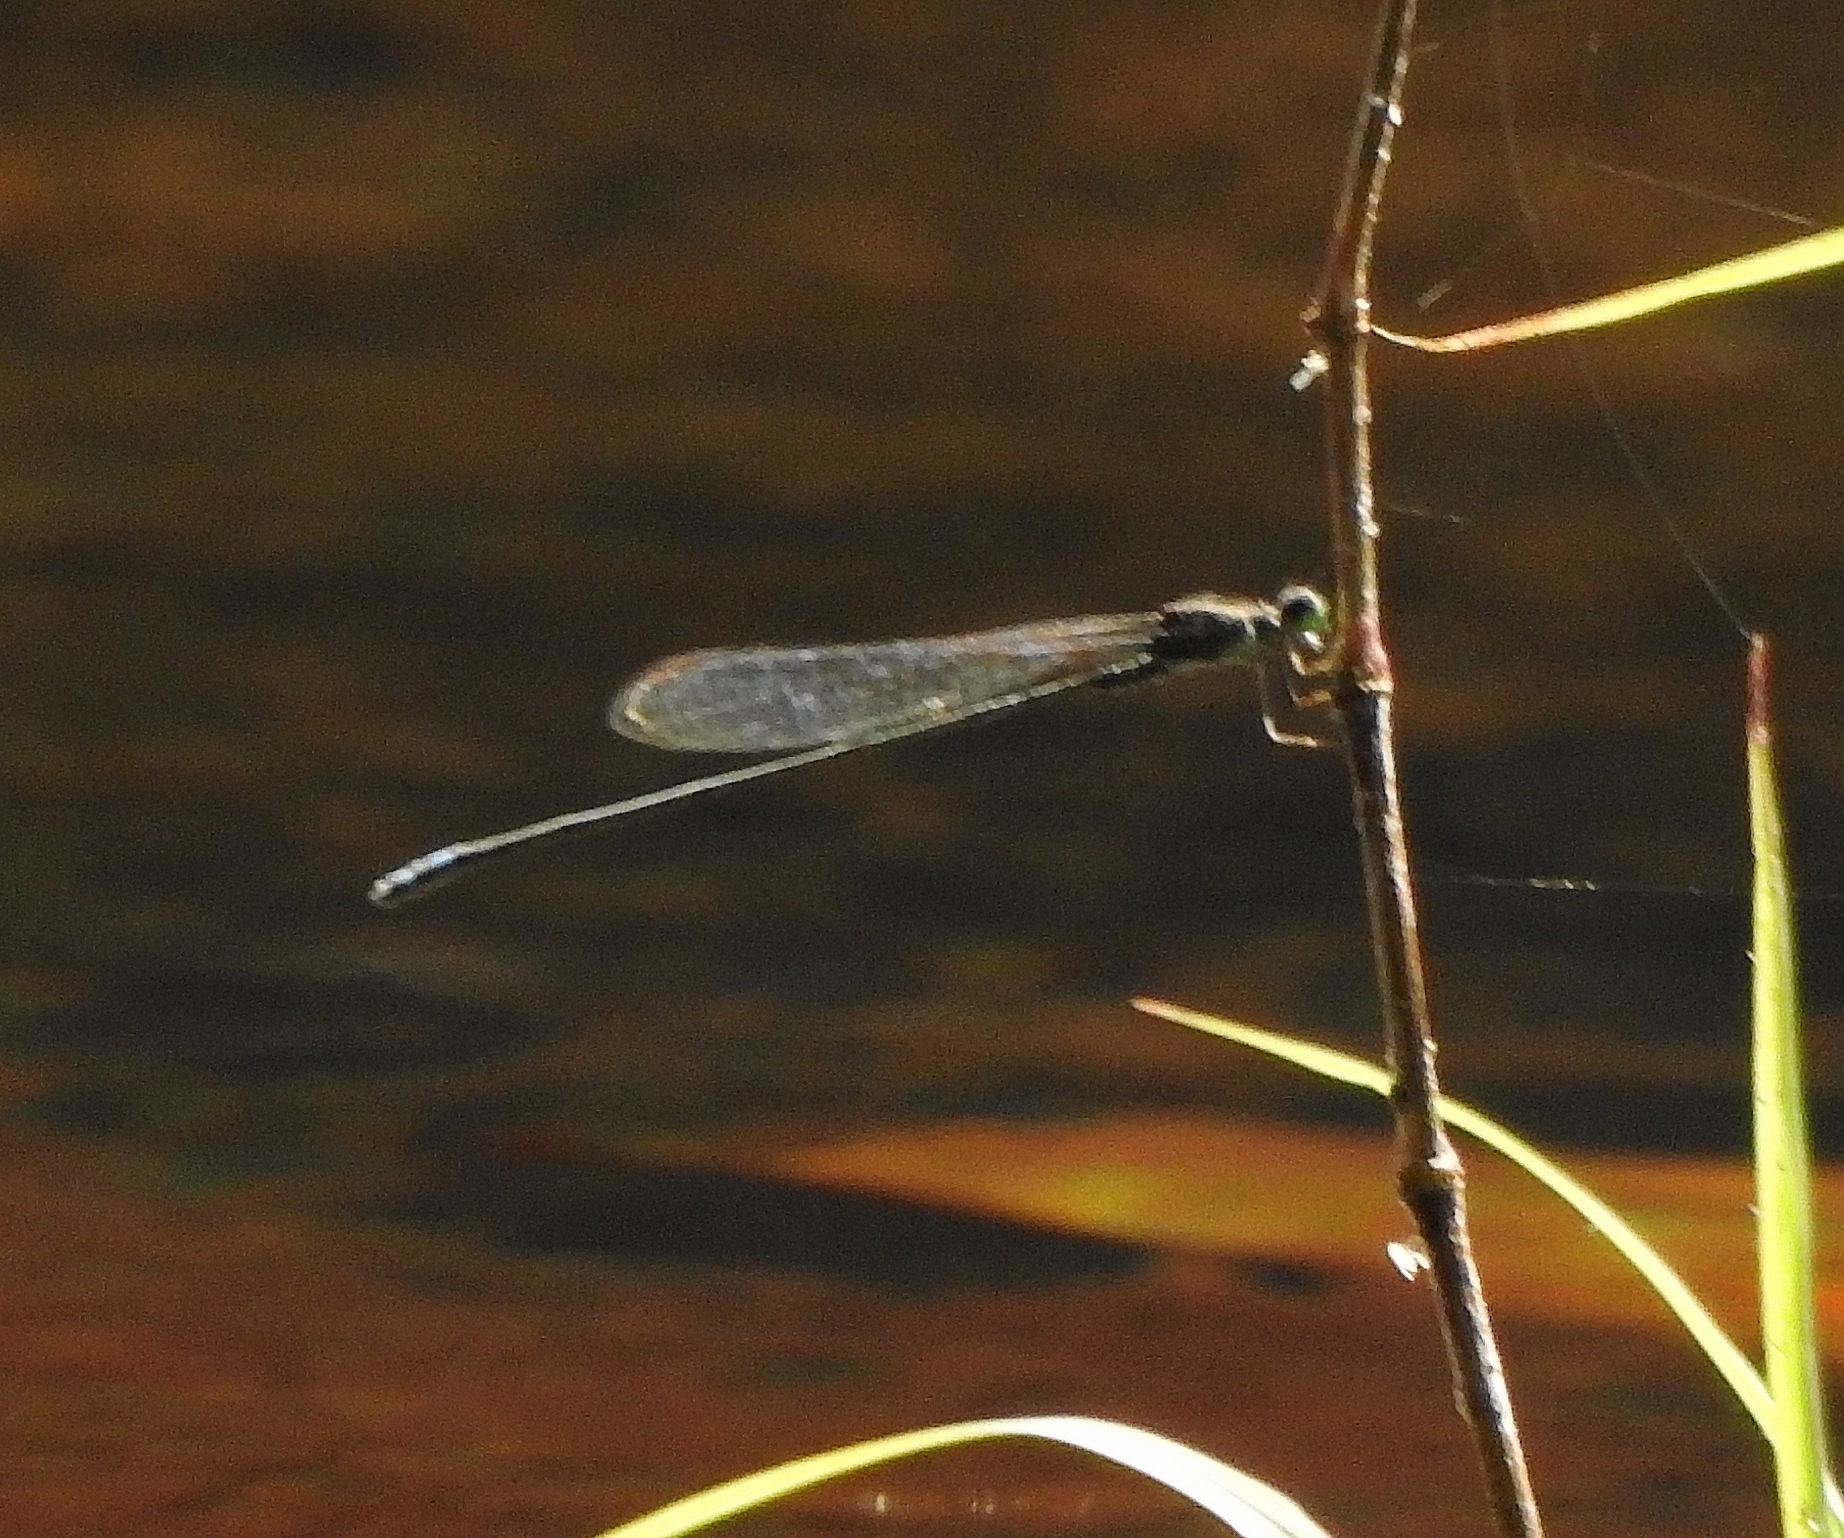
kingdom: Animalia
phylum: Arthropoda
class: Insecta
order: Odonata
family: Coenagrionidae
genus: Pseudagrion
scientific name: Pseudagrion indicum
